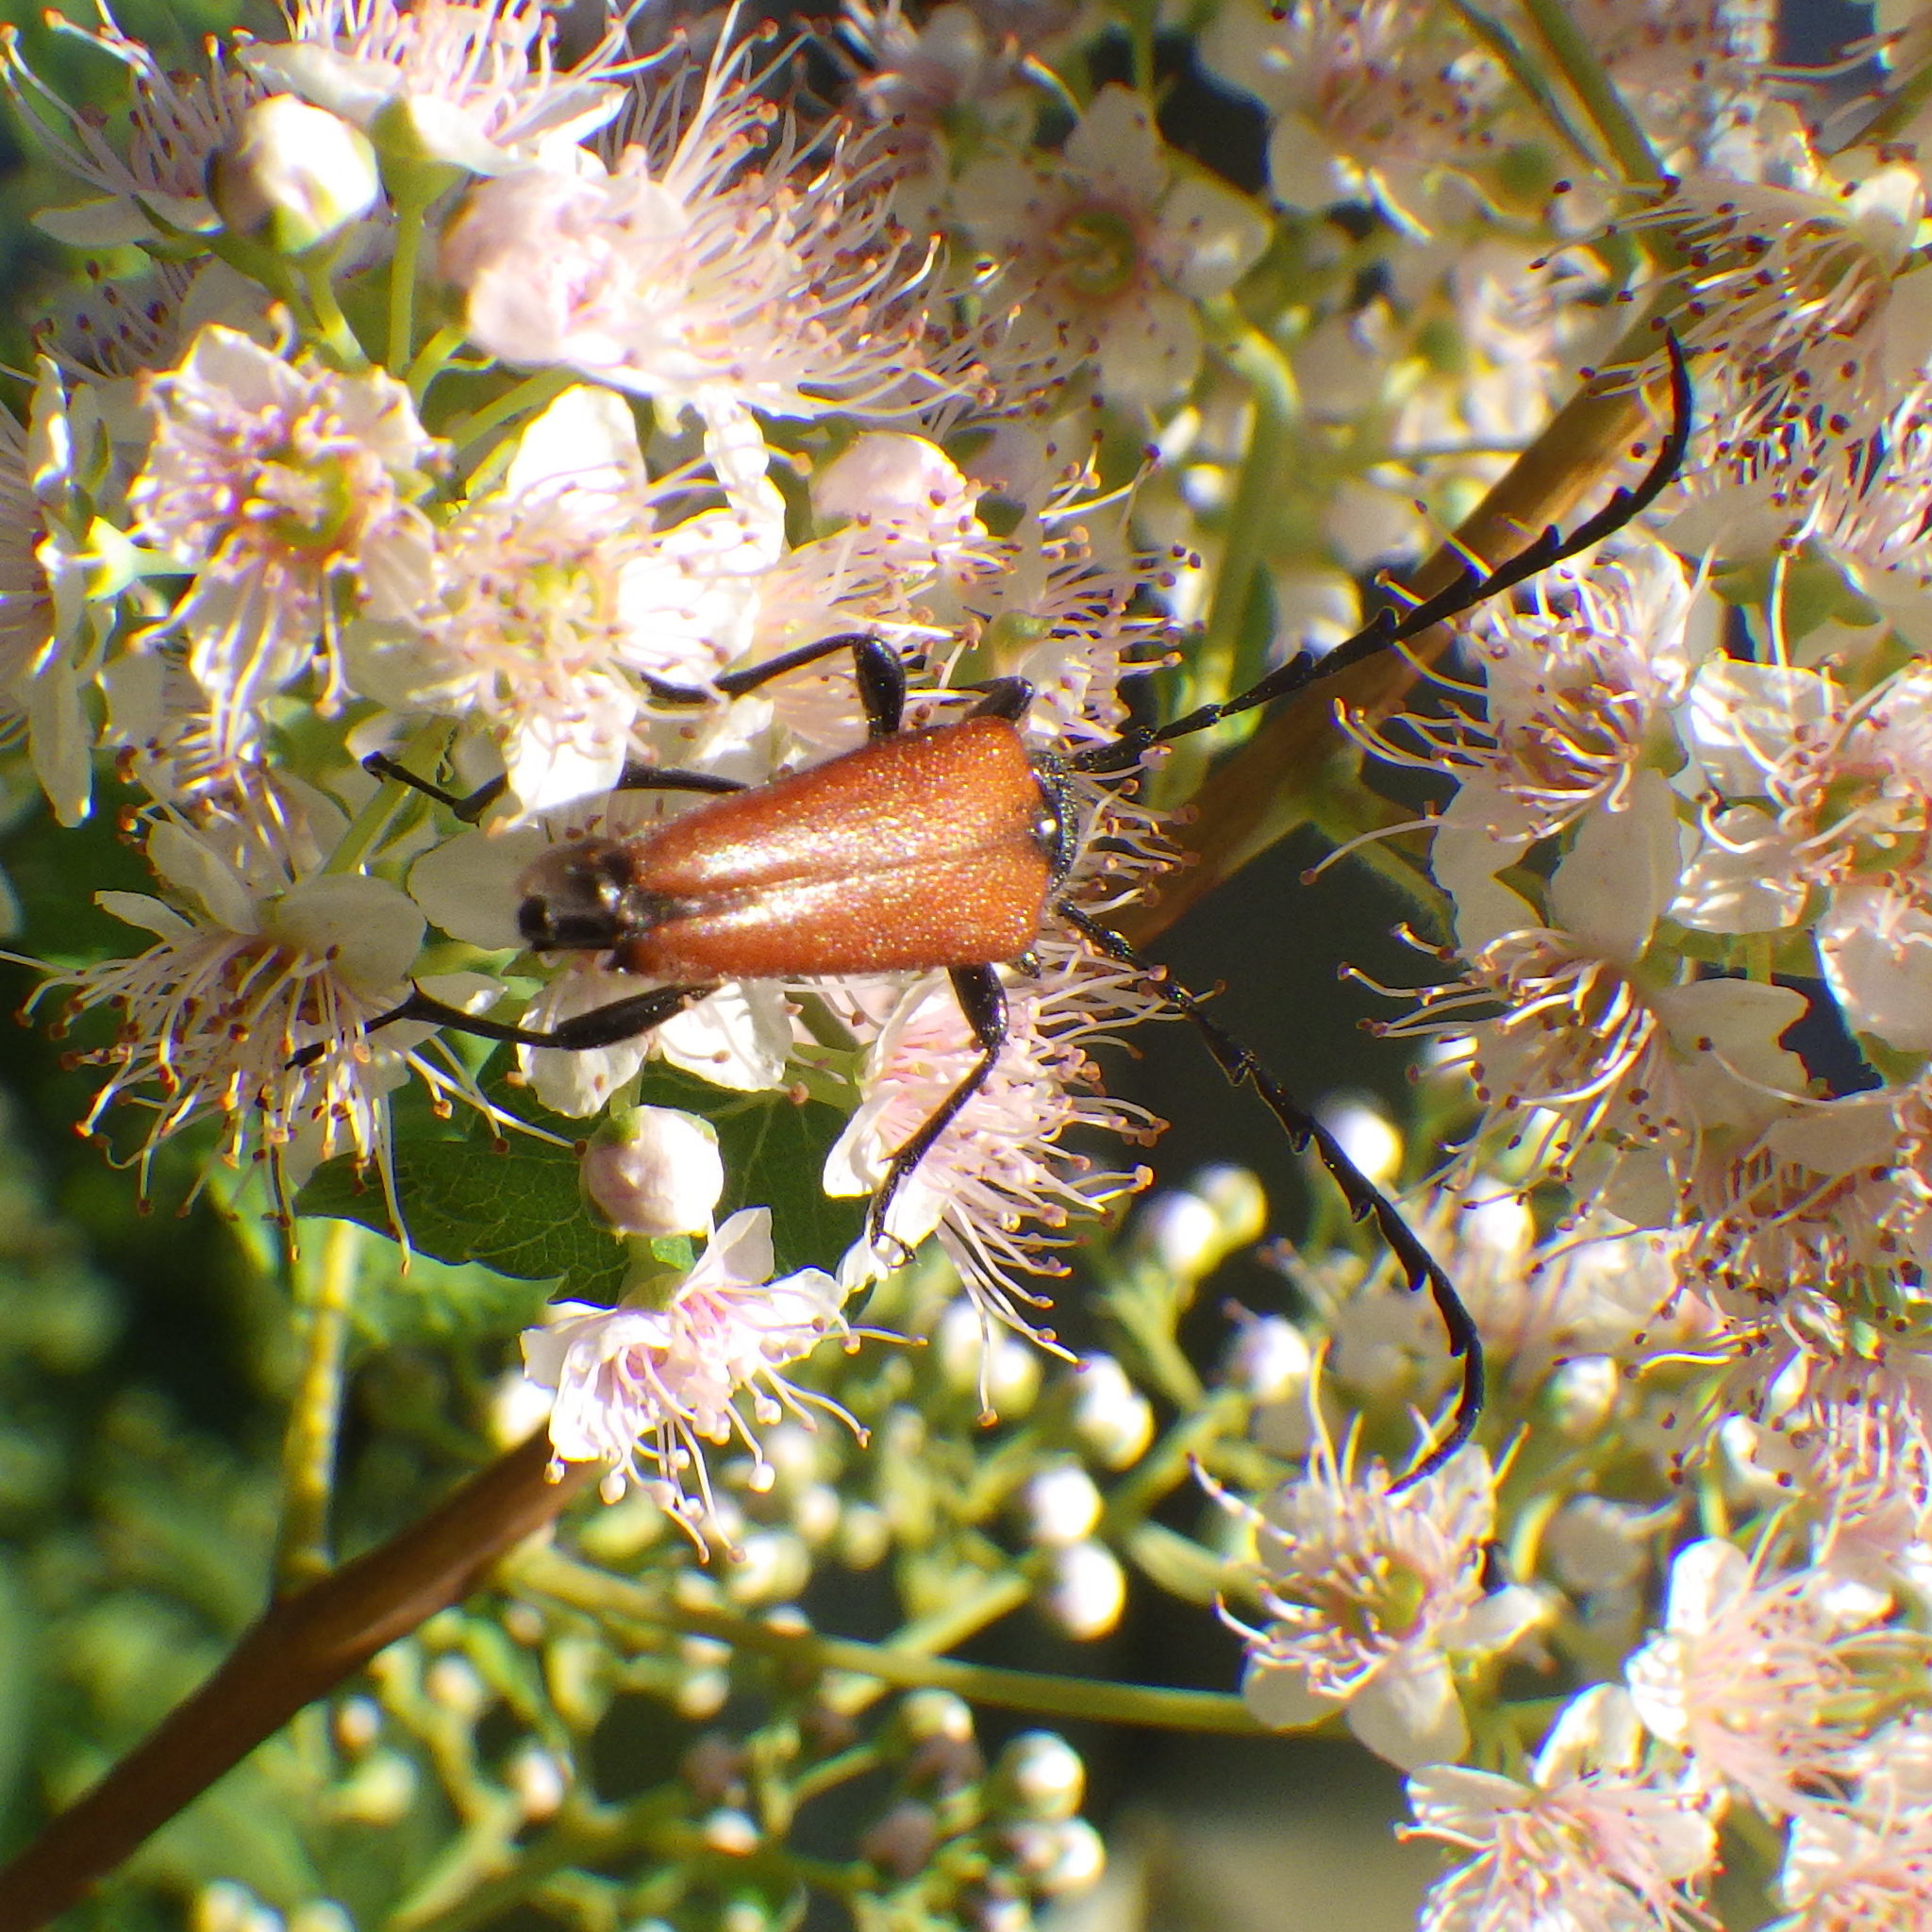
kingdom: Animalia
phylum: Arthropoda
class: Insecta
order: Coleoptera
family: Cerambycidae
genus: Stictoleptura
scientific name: Stictoleptura canadensis
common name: Red-shouldered pine borer
